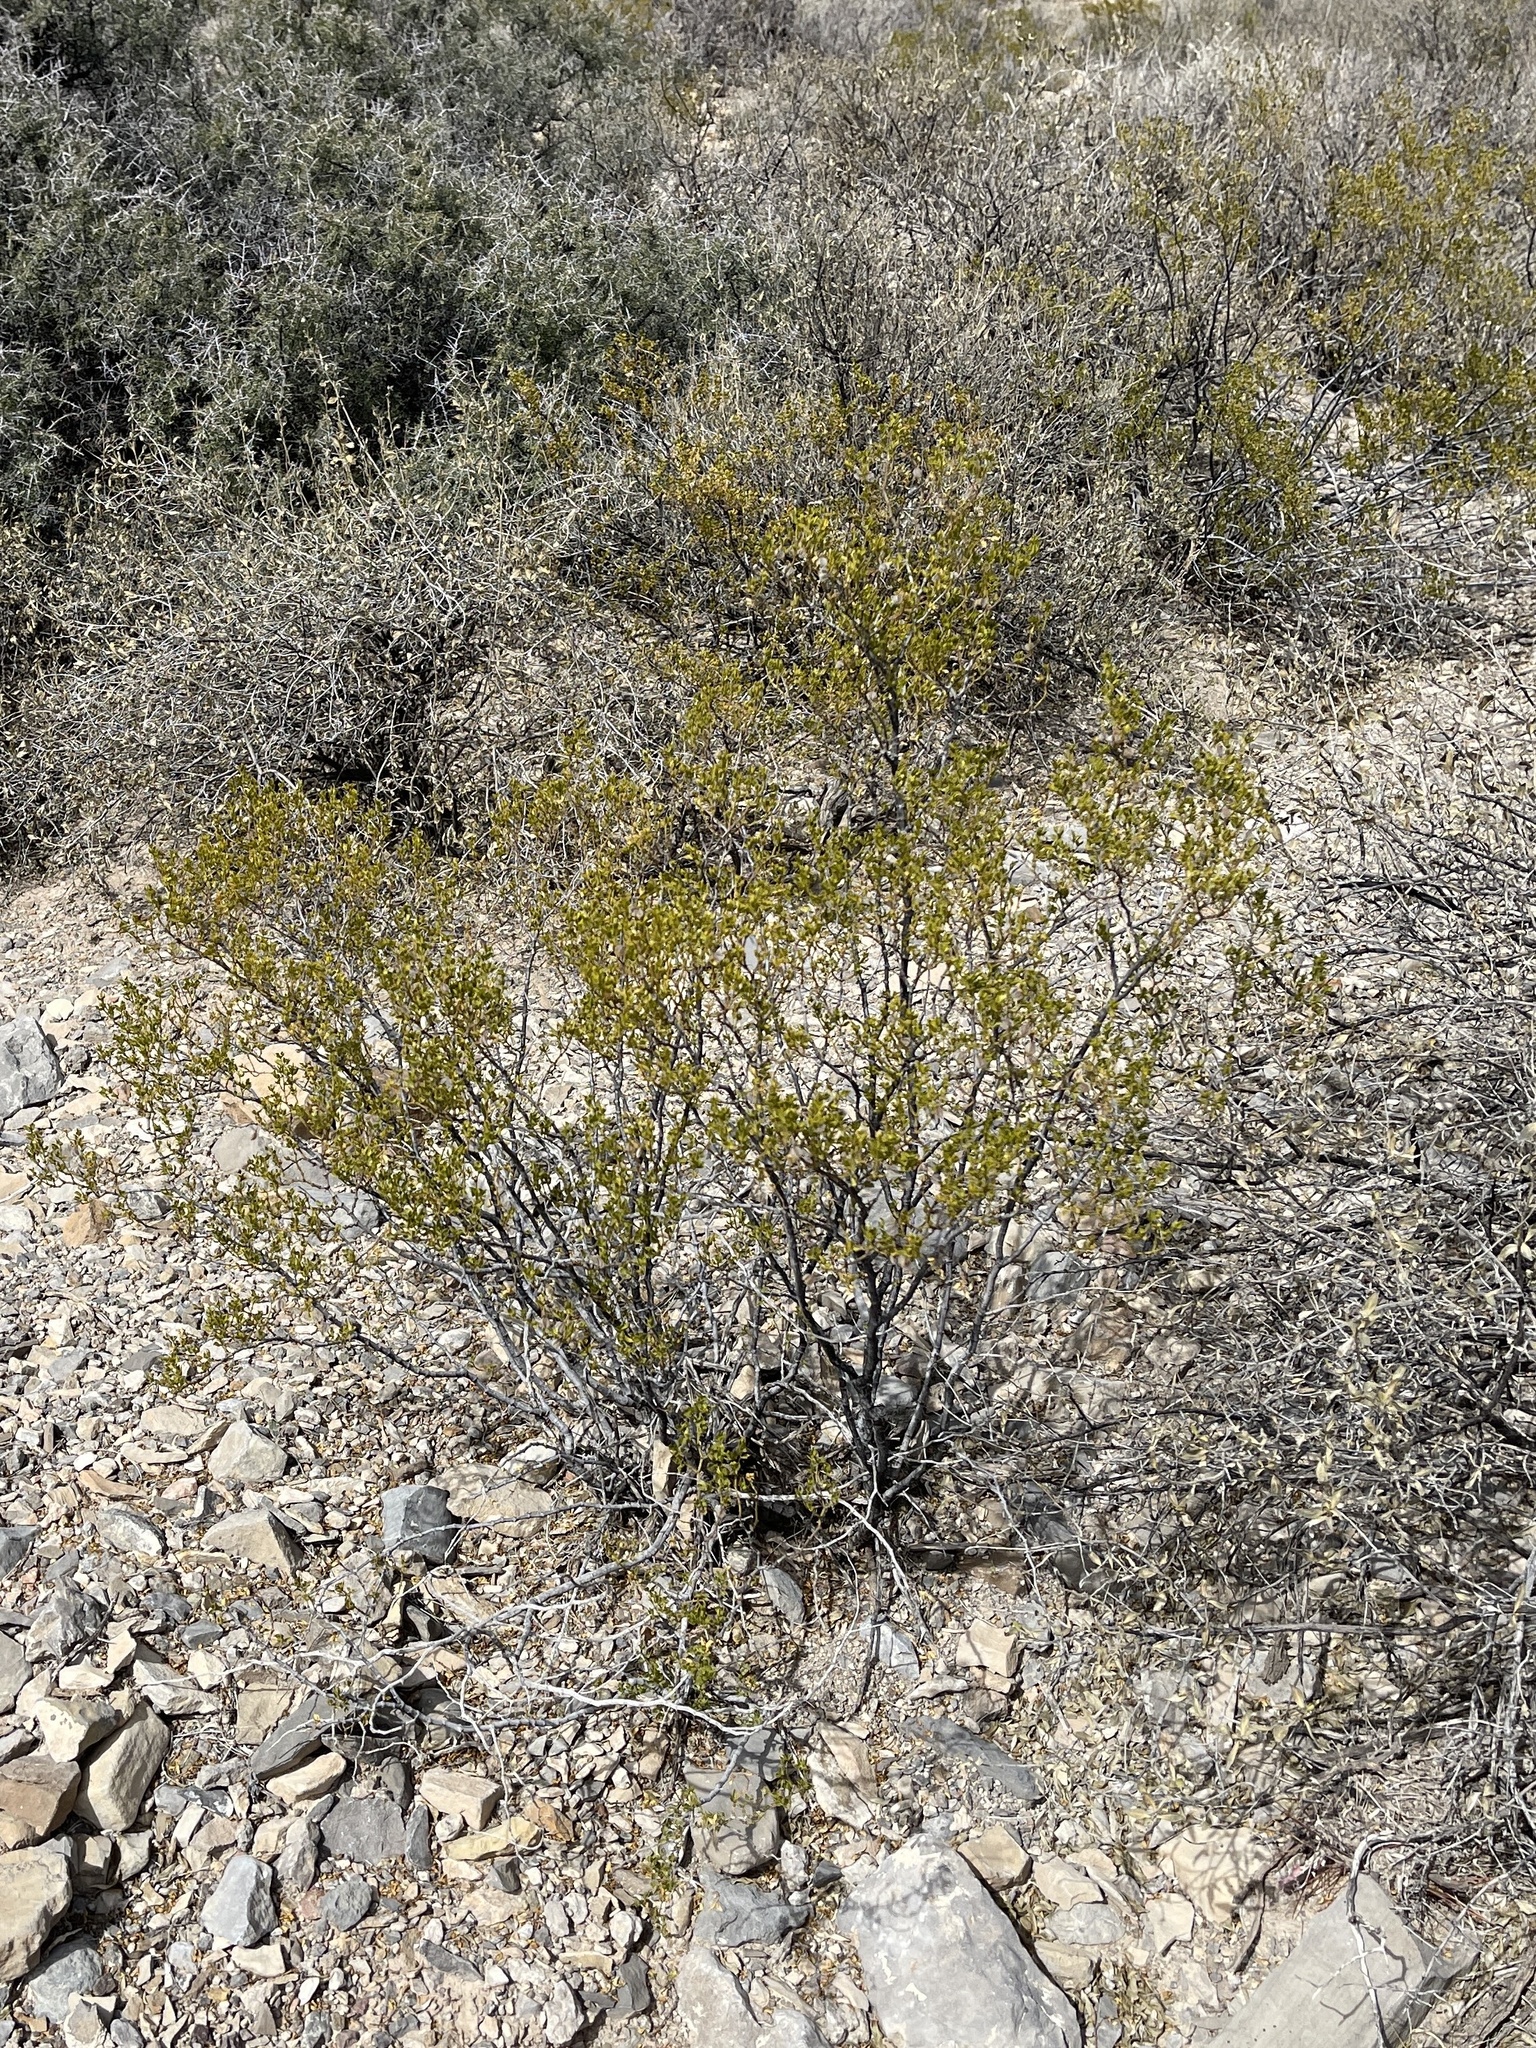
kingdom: Plantae
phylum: Tracheophyta
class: Magnoliopsida
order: Zygophyllales
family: Zygophyllaceae
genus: Larrea
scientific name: Larrea tridentata
